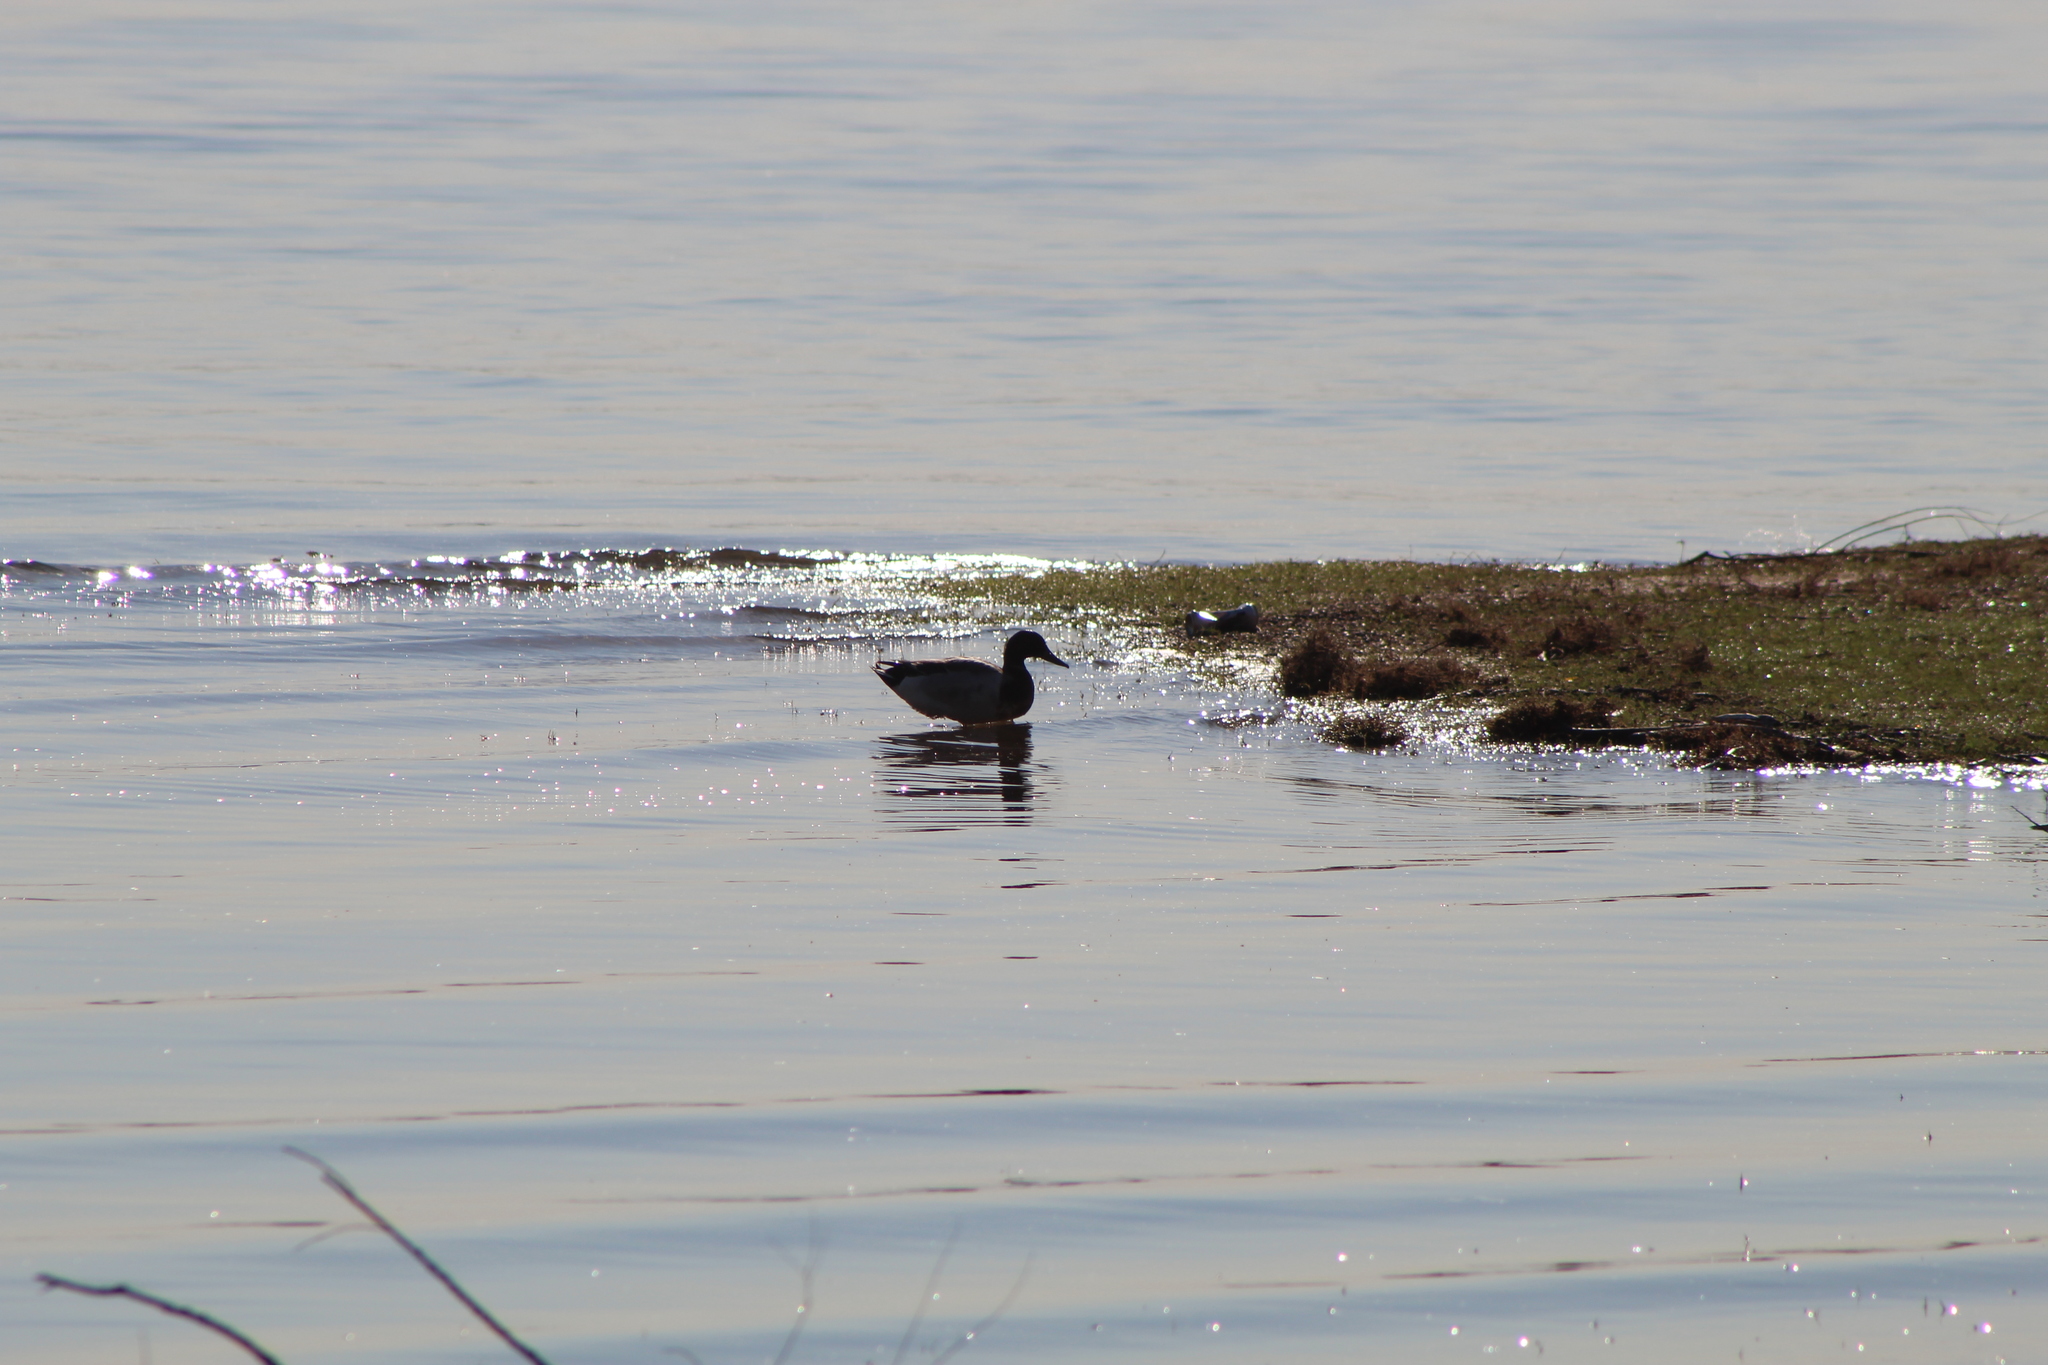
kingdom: Animalia
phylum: Chordata
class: Aves
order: Anseriformes
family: Anatidae
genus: Anas
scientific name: Anas platyrhynchos
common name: Mallard
